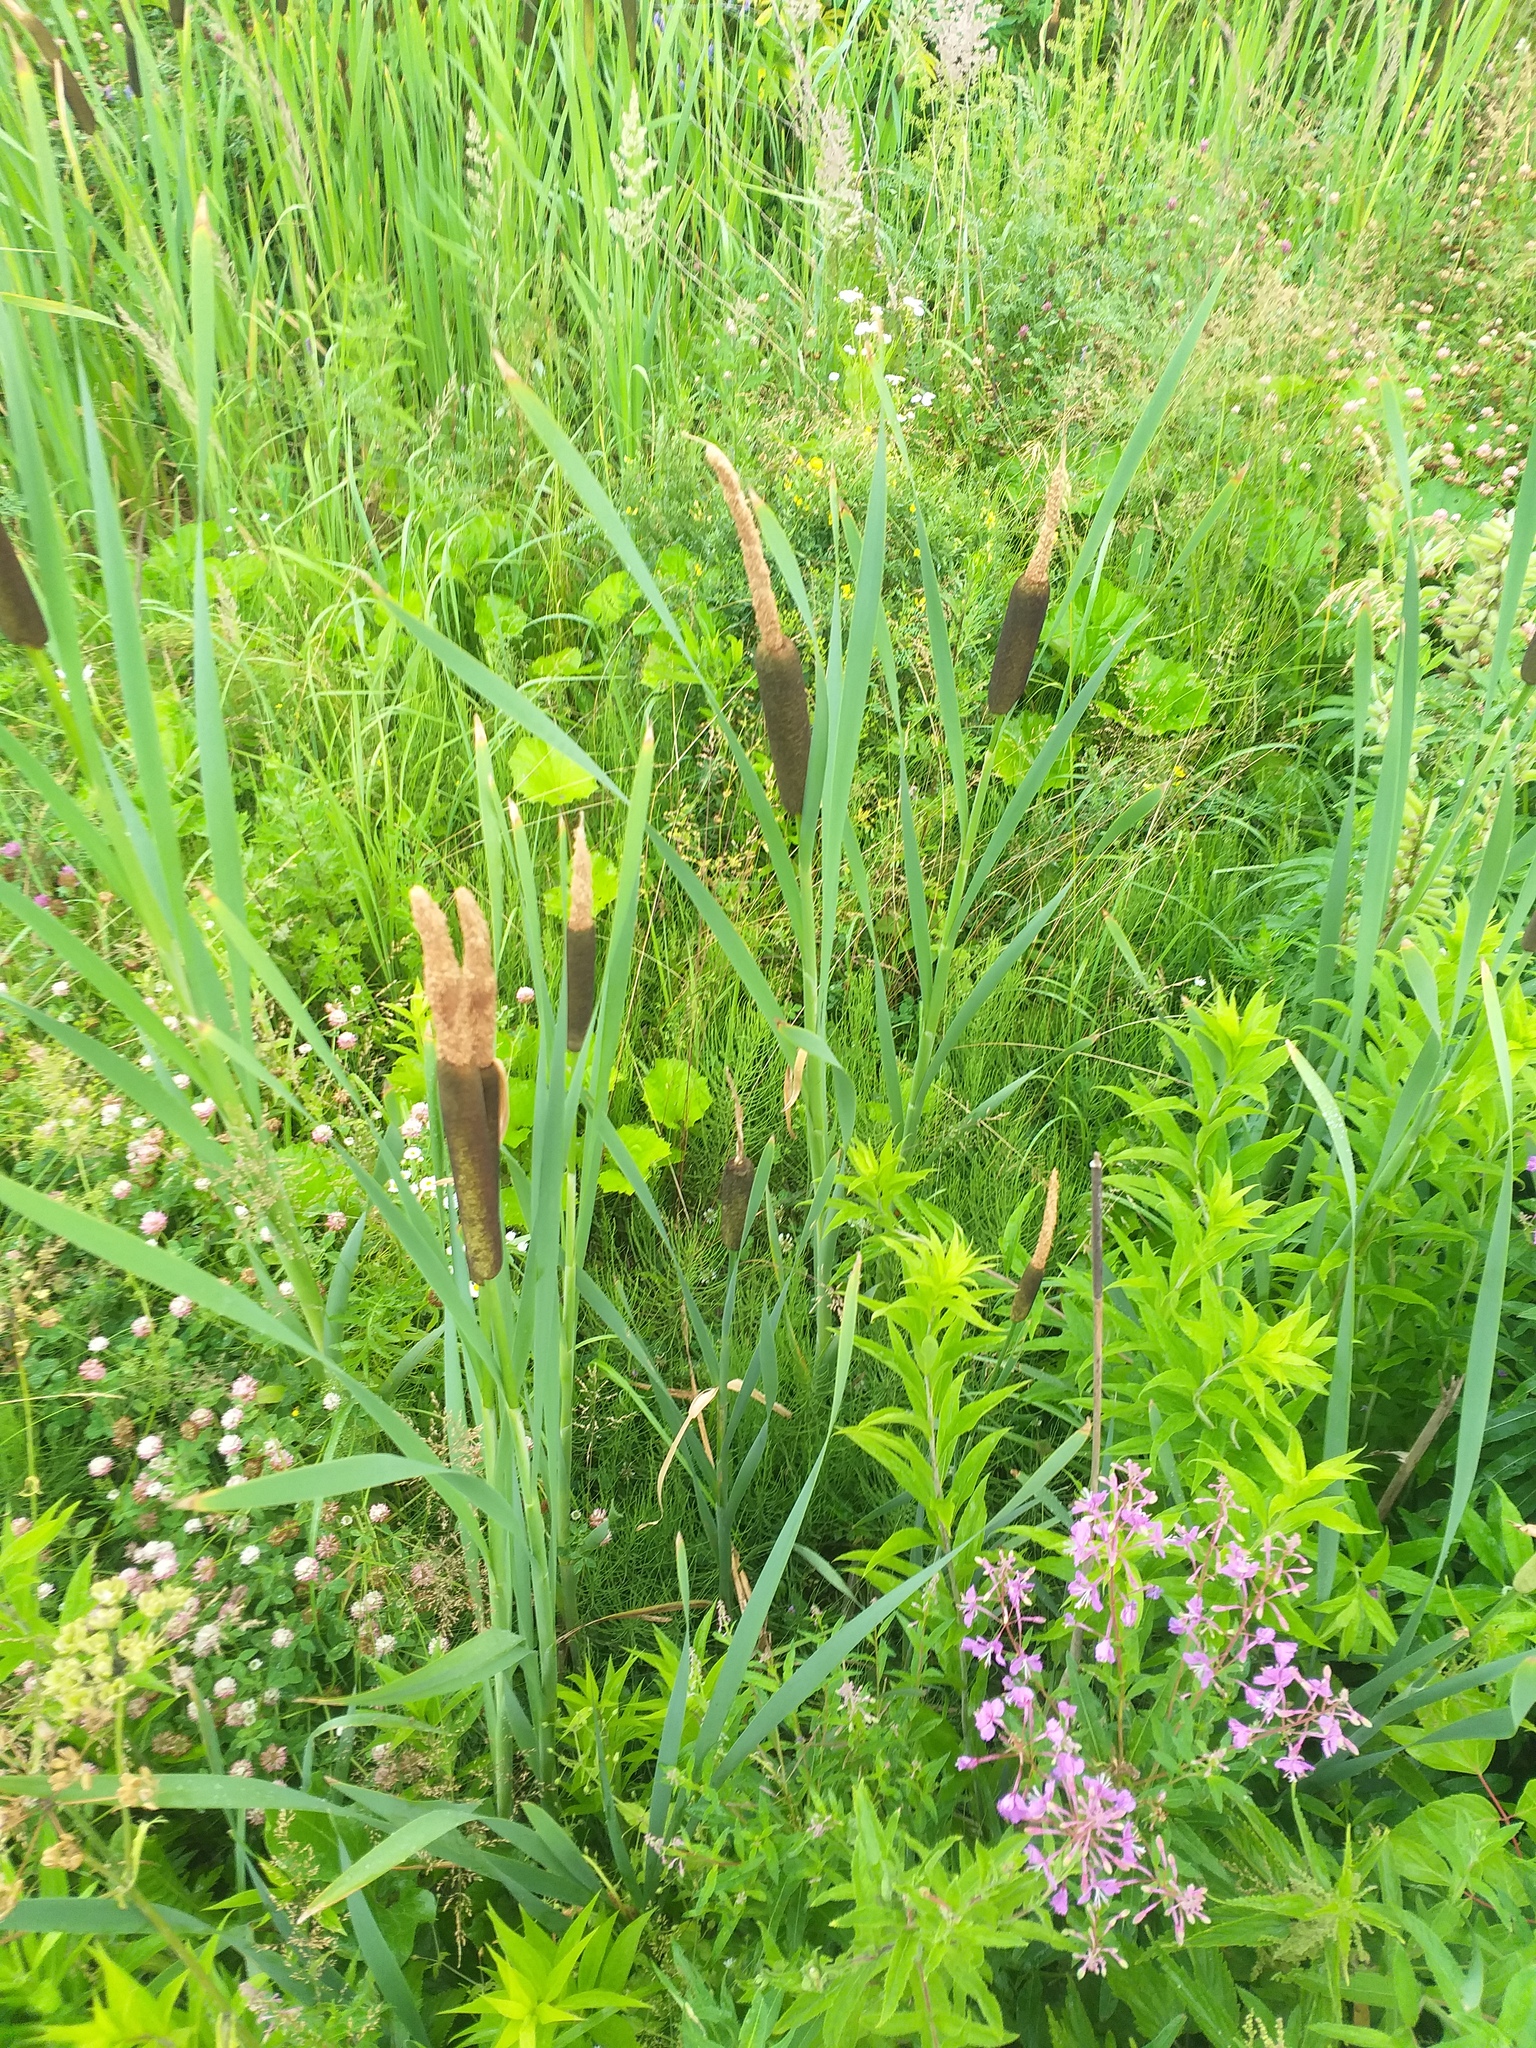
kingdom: Plantae
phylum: Tracheophyta
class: Liliopsida
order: Poales
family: Typhaceae
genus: Typha
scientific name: Typha latifolia
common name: Broadleaf cattail
